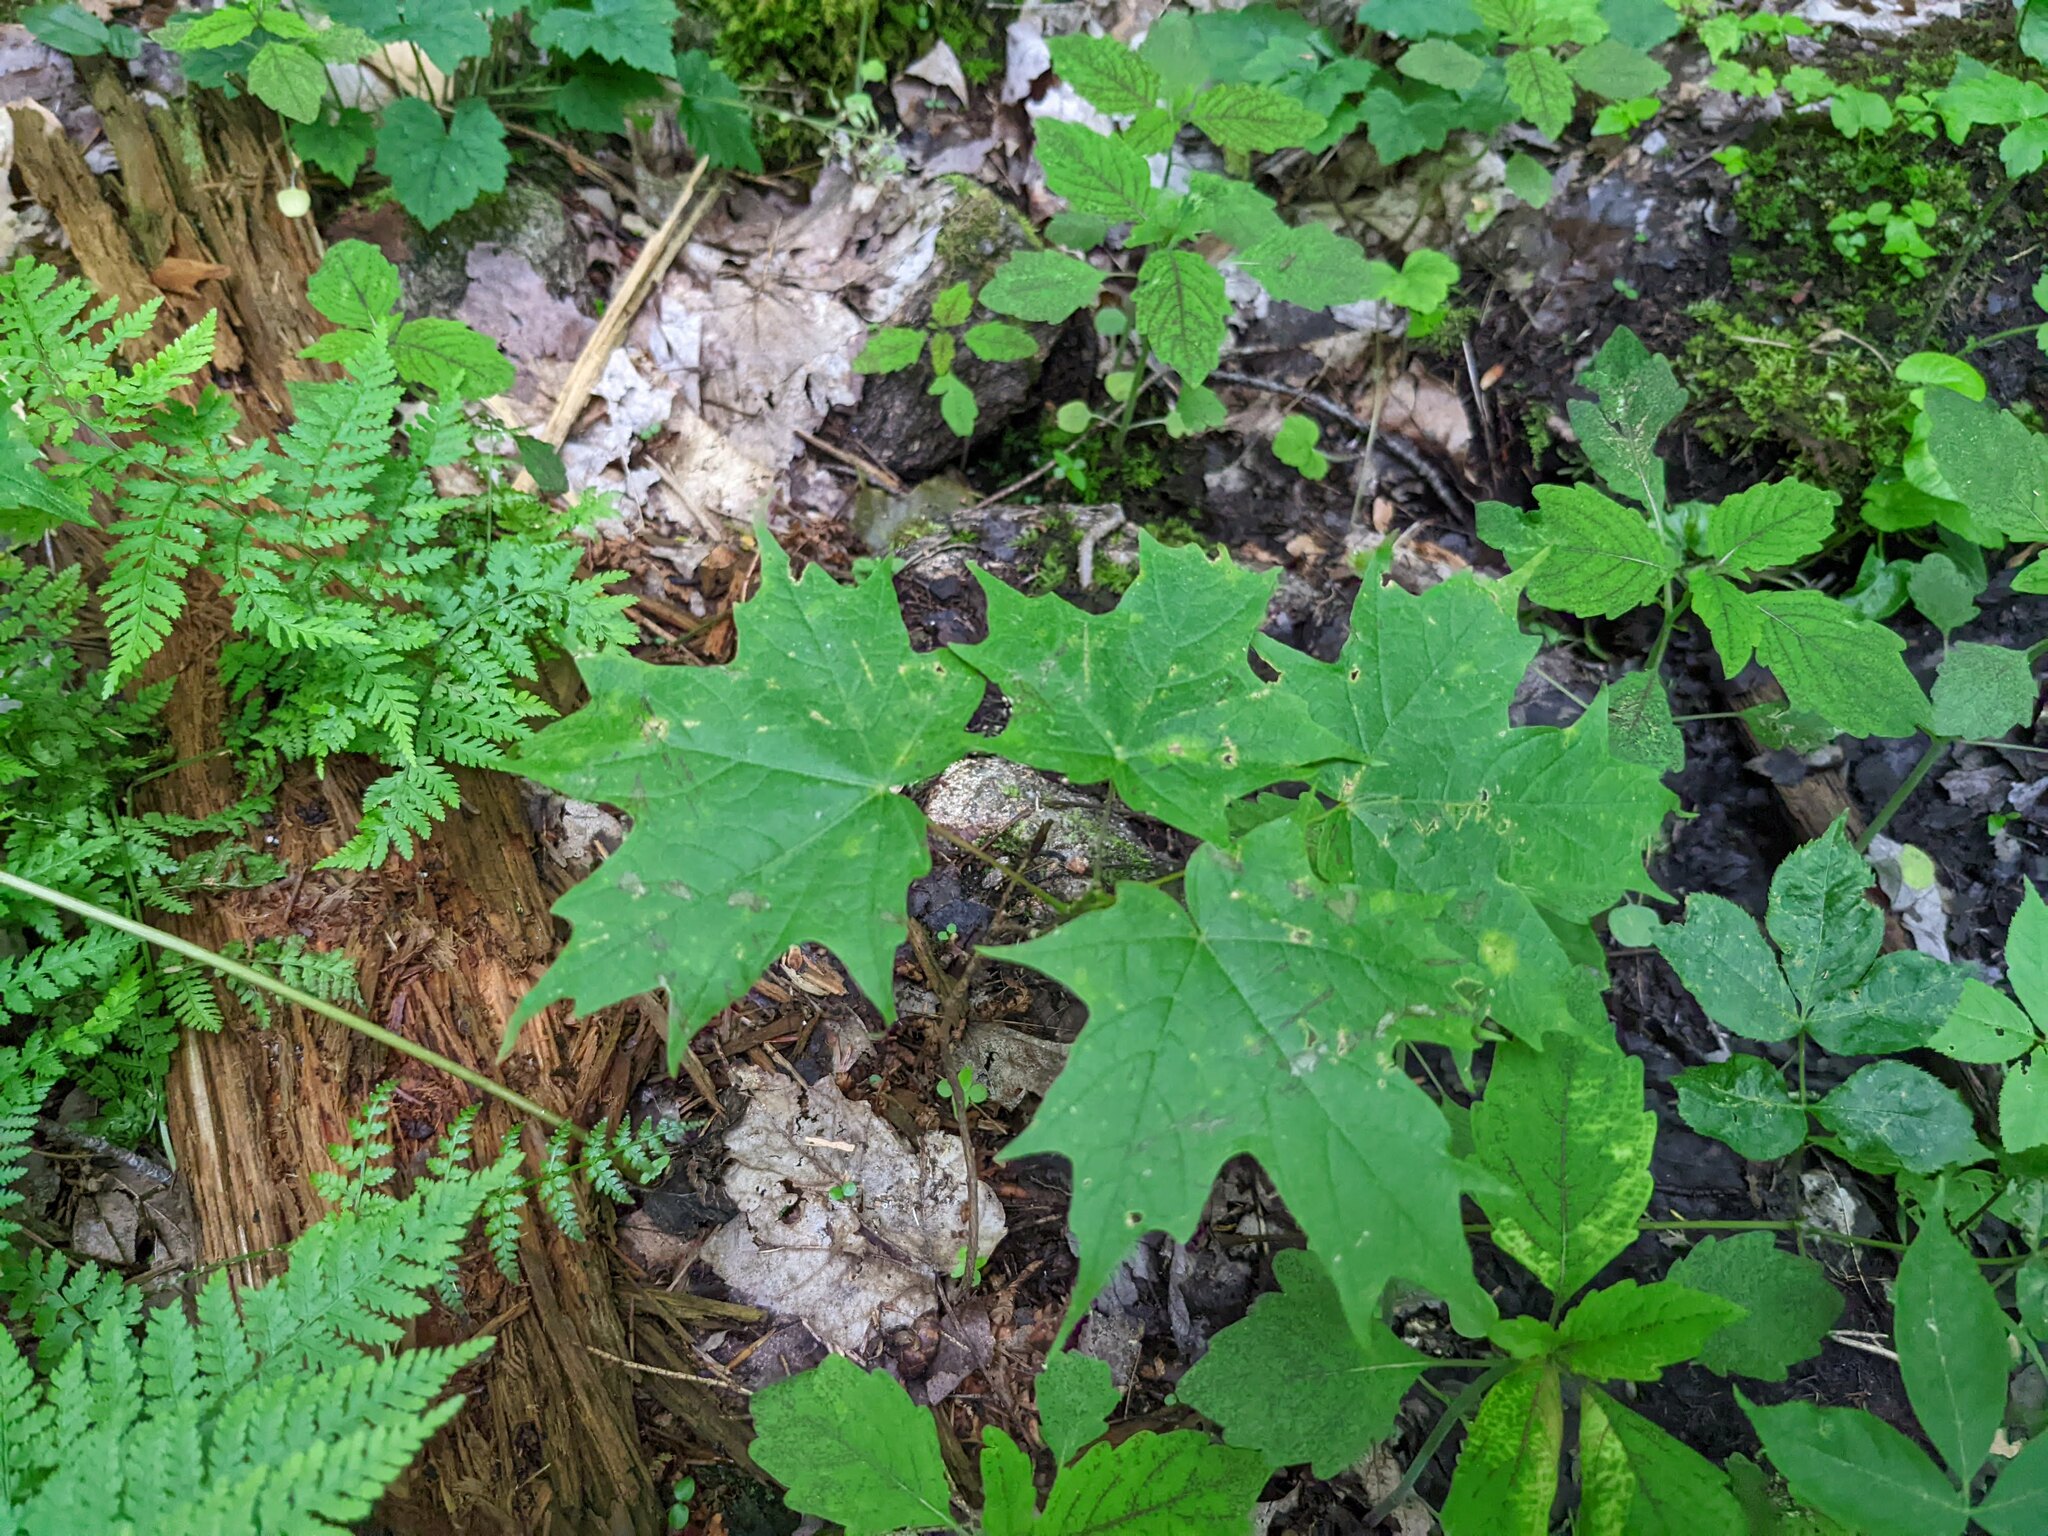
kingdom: Plantae
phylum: Tracheophyta
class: Magnoliopsida
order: Sapindales
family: Sapindaceae
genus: Acer
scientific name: Acer saccharum
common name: Sugar maple
